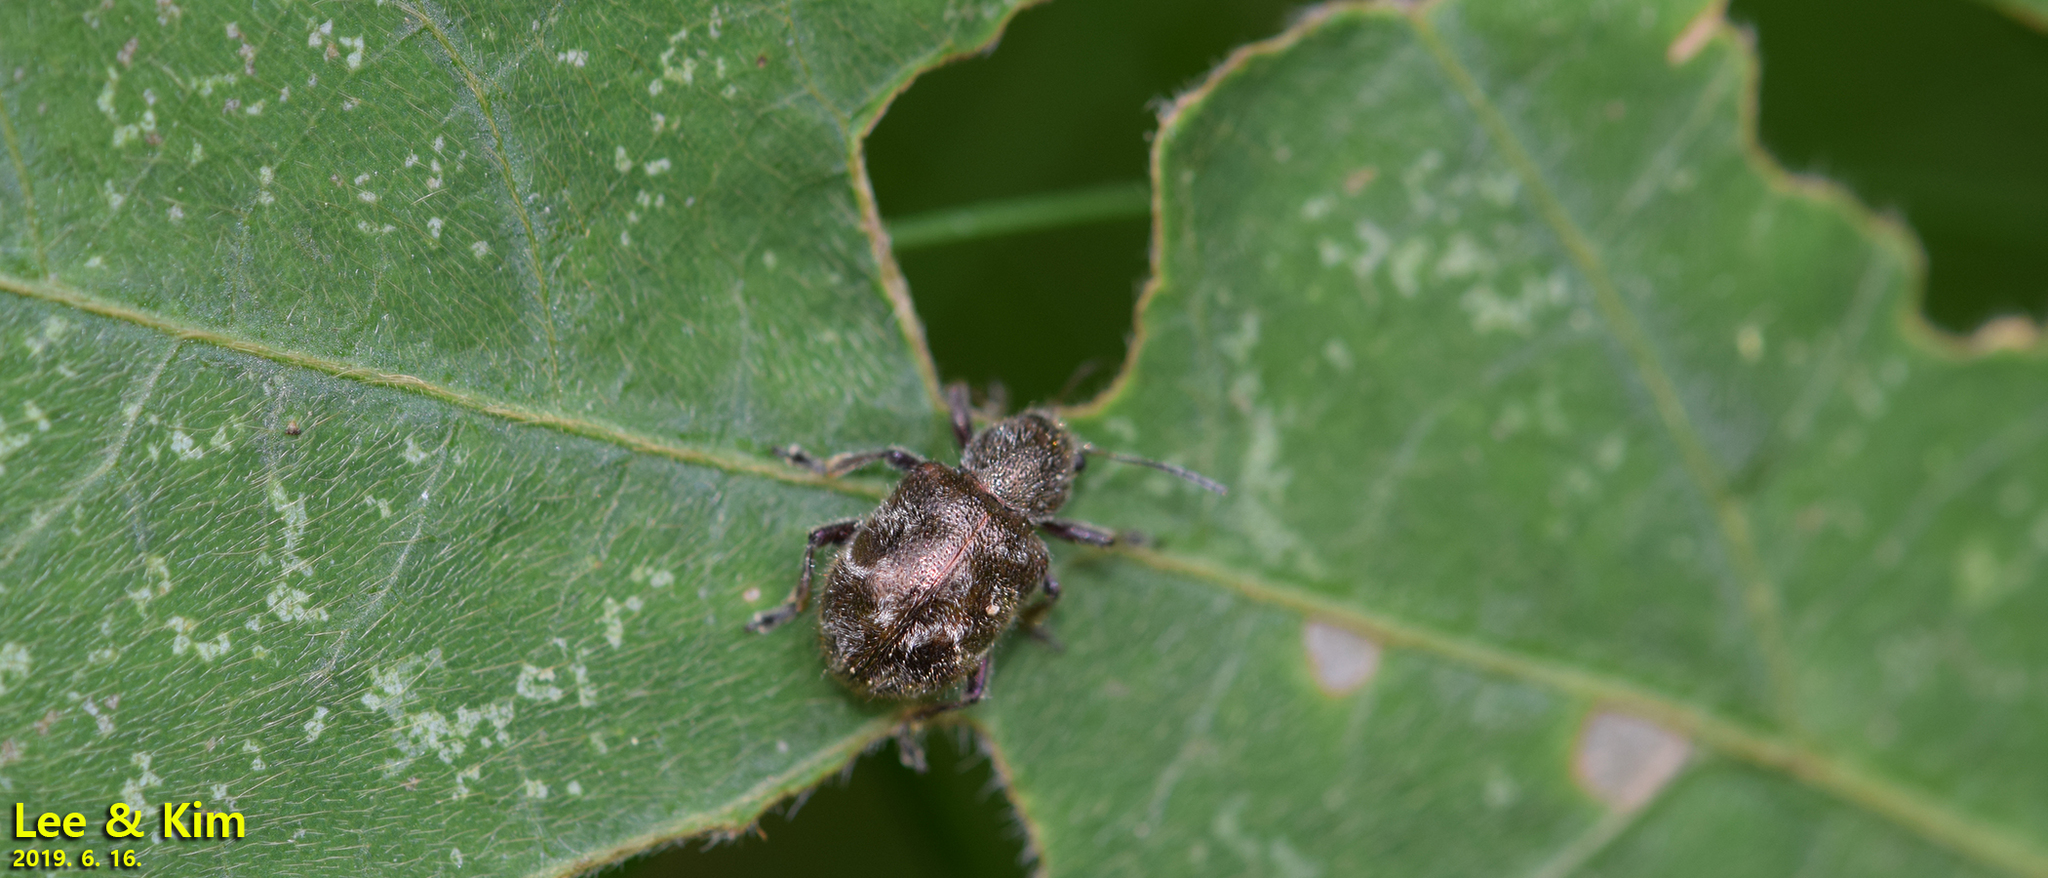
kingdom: Animalia
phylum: Arthropoda
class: Insecta
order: Coleoptera
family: Chrysomelidae
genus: Trichochrysea
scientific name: Trichochrysea
